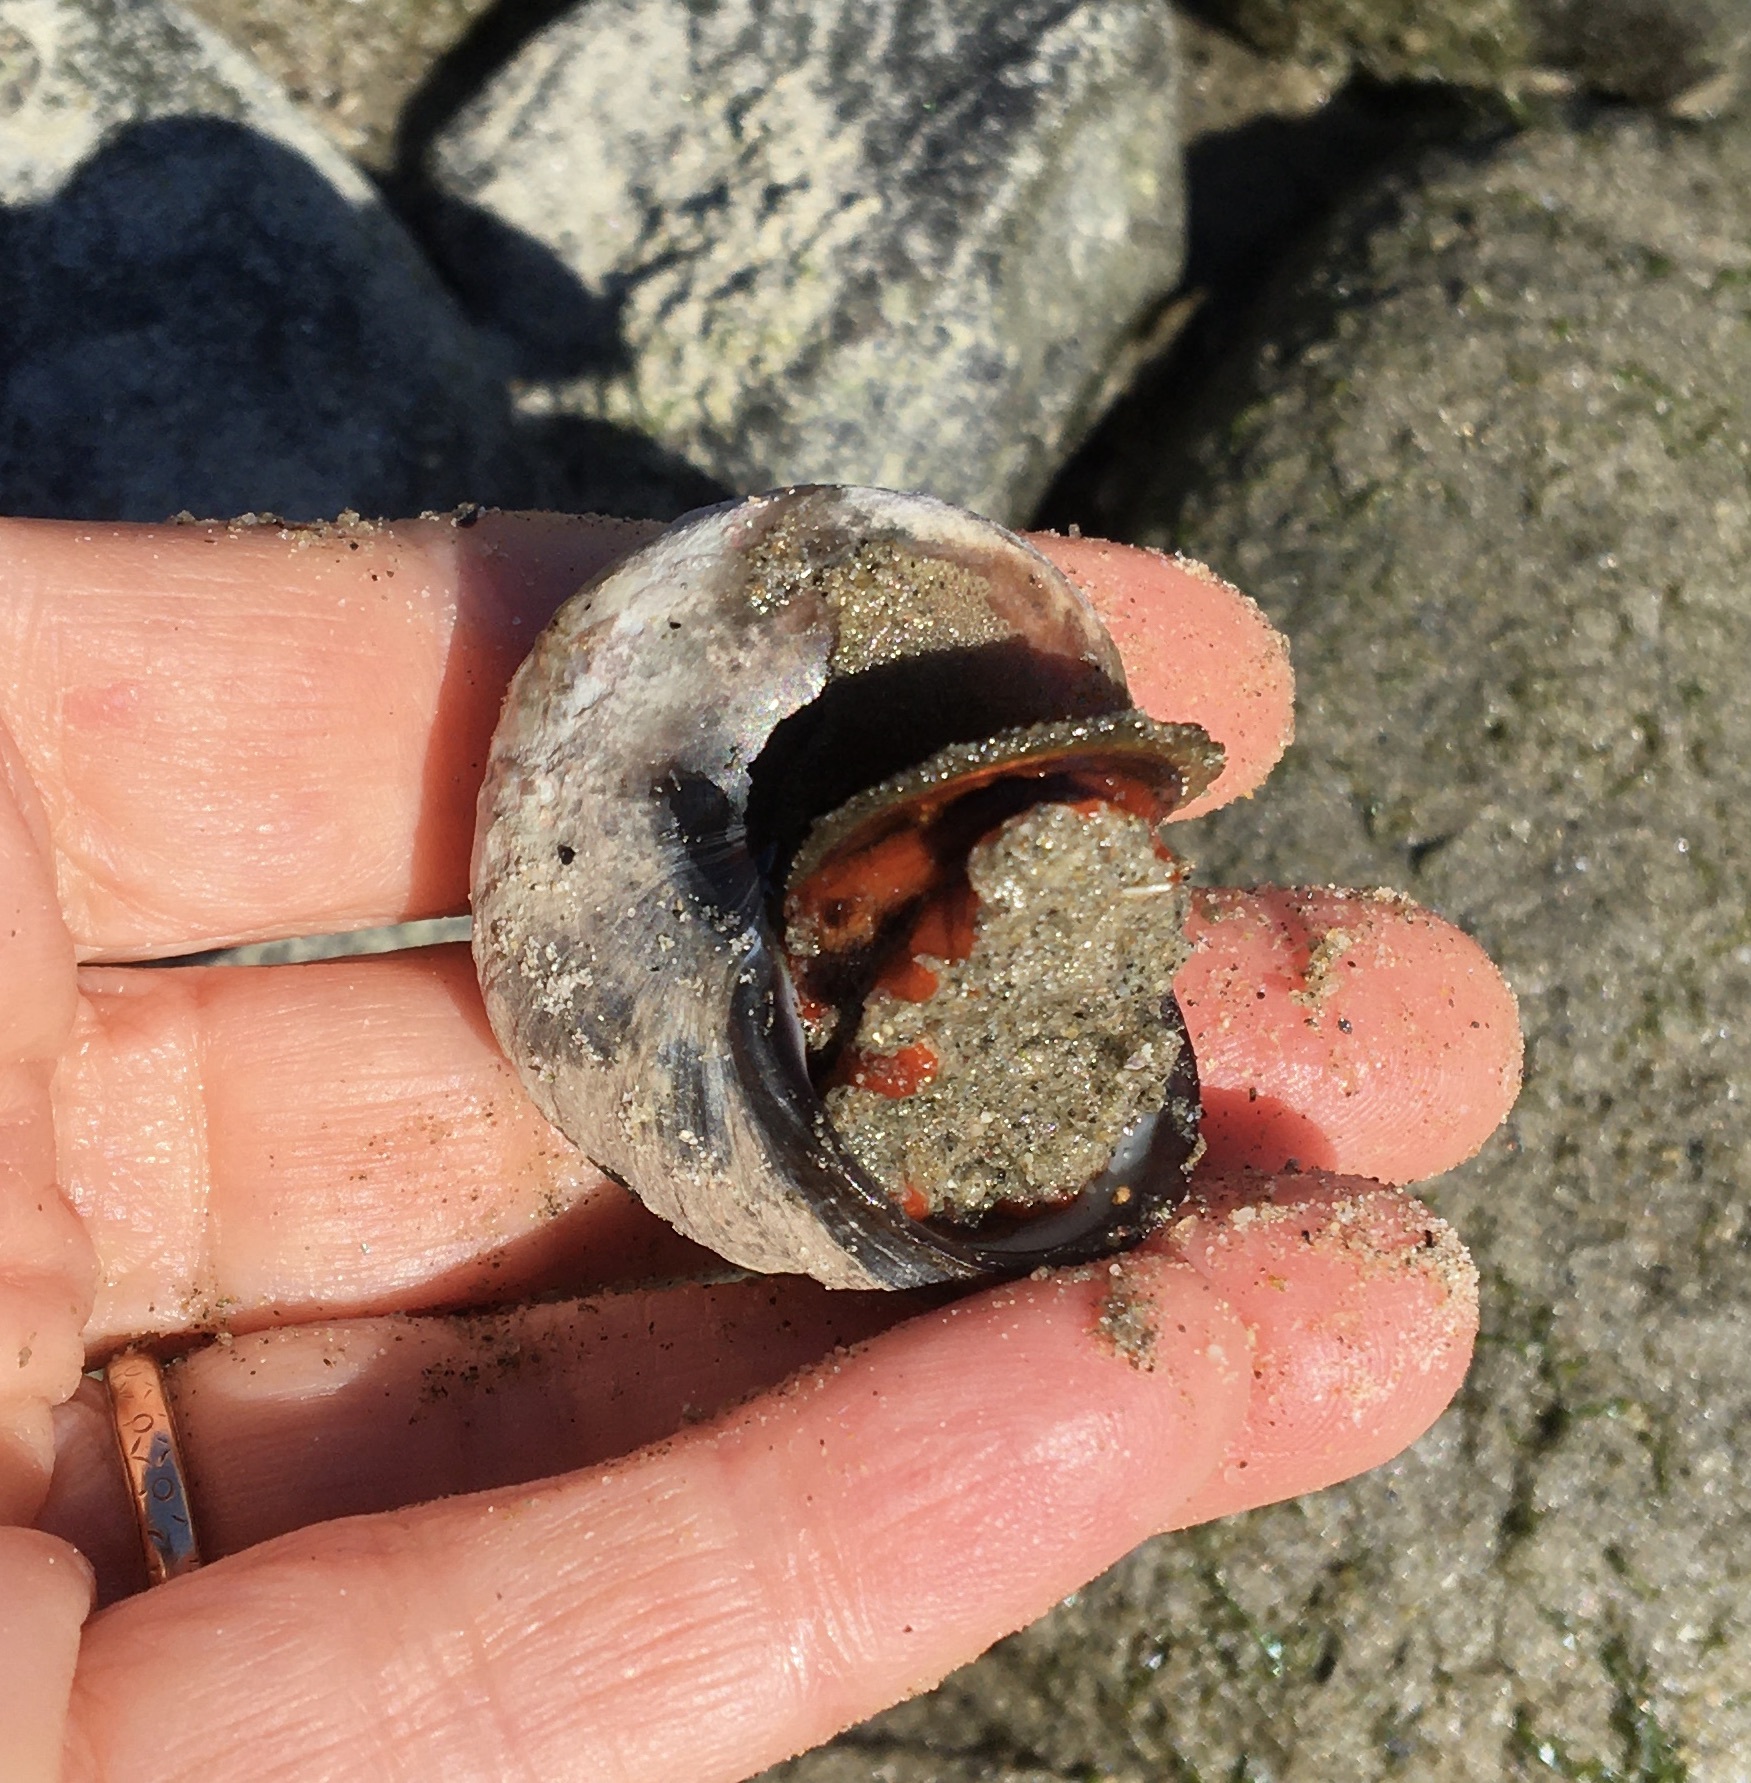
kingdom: Animalia
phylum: Mollusca
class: Gastropoda
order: Trochida
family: Tegulidae
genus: Norrisia
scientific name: Norrisia norrisii
